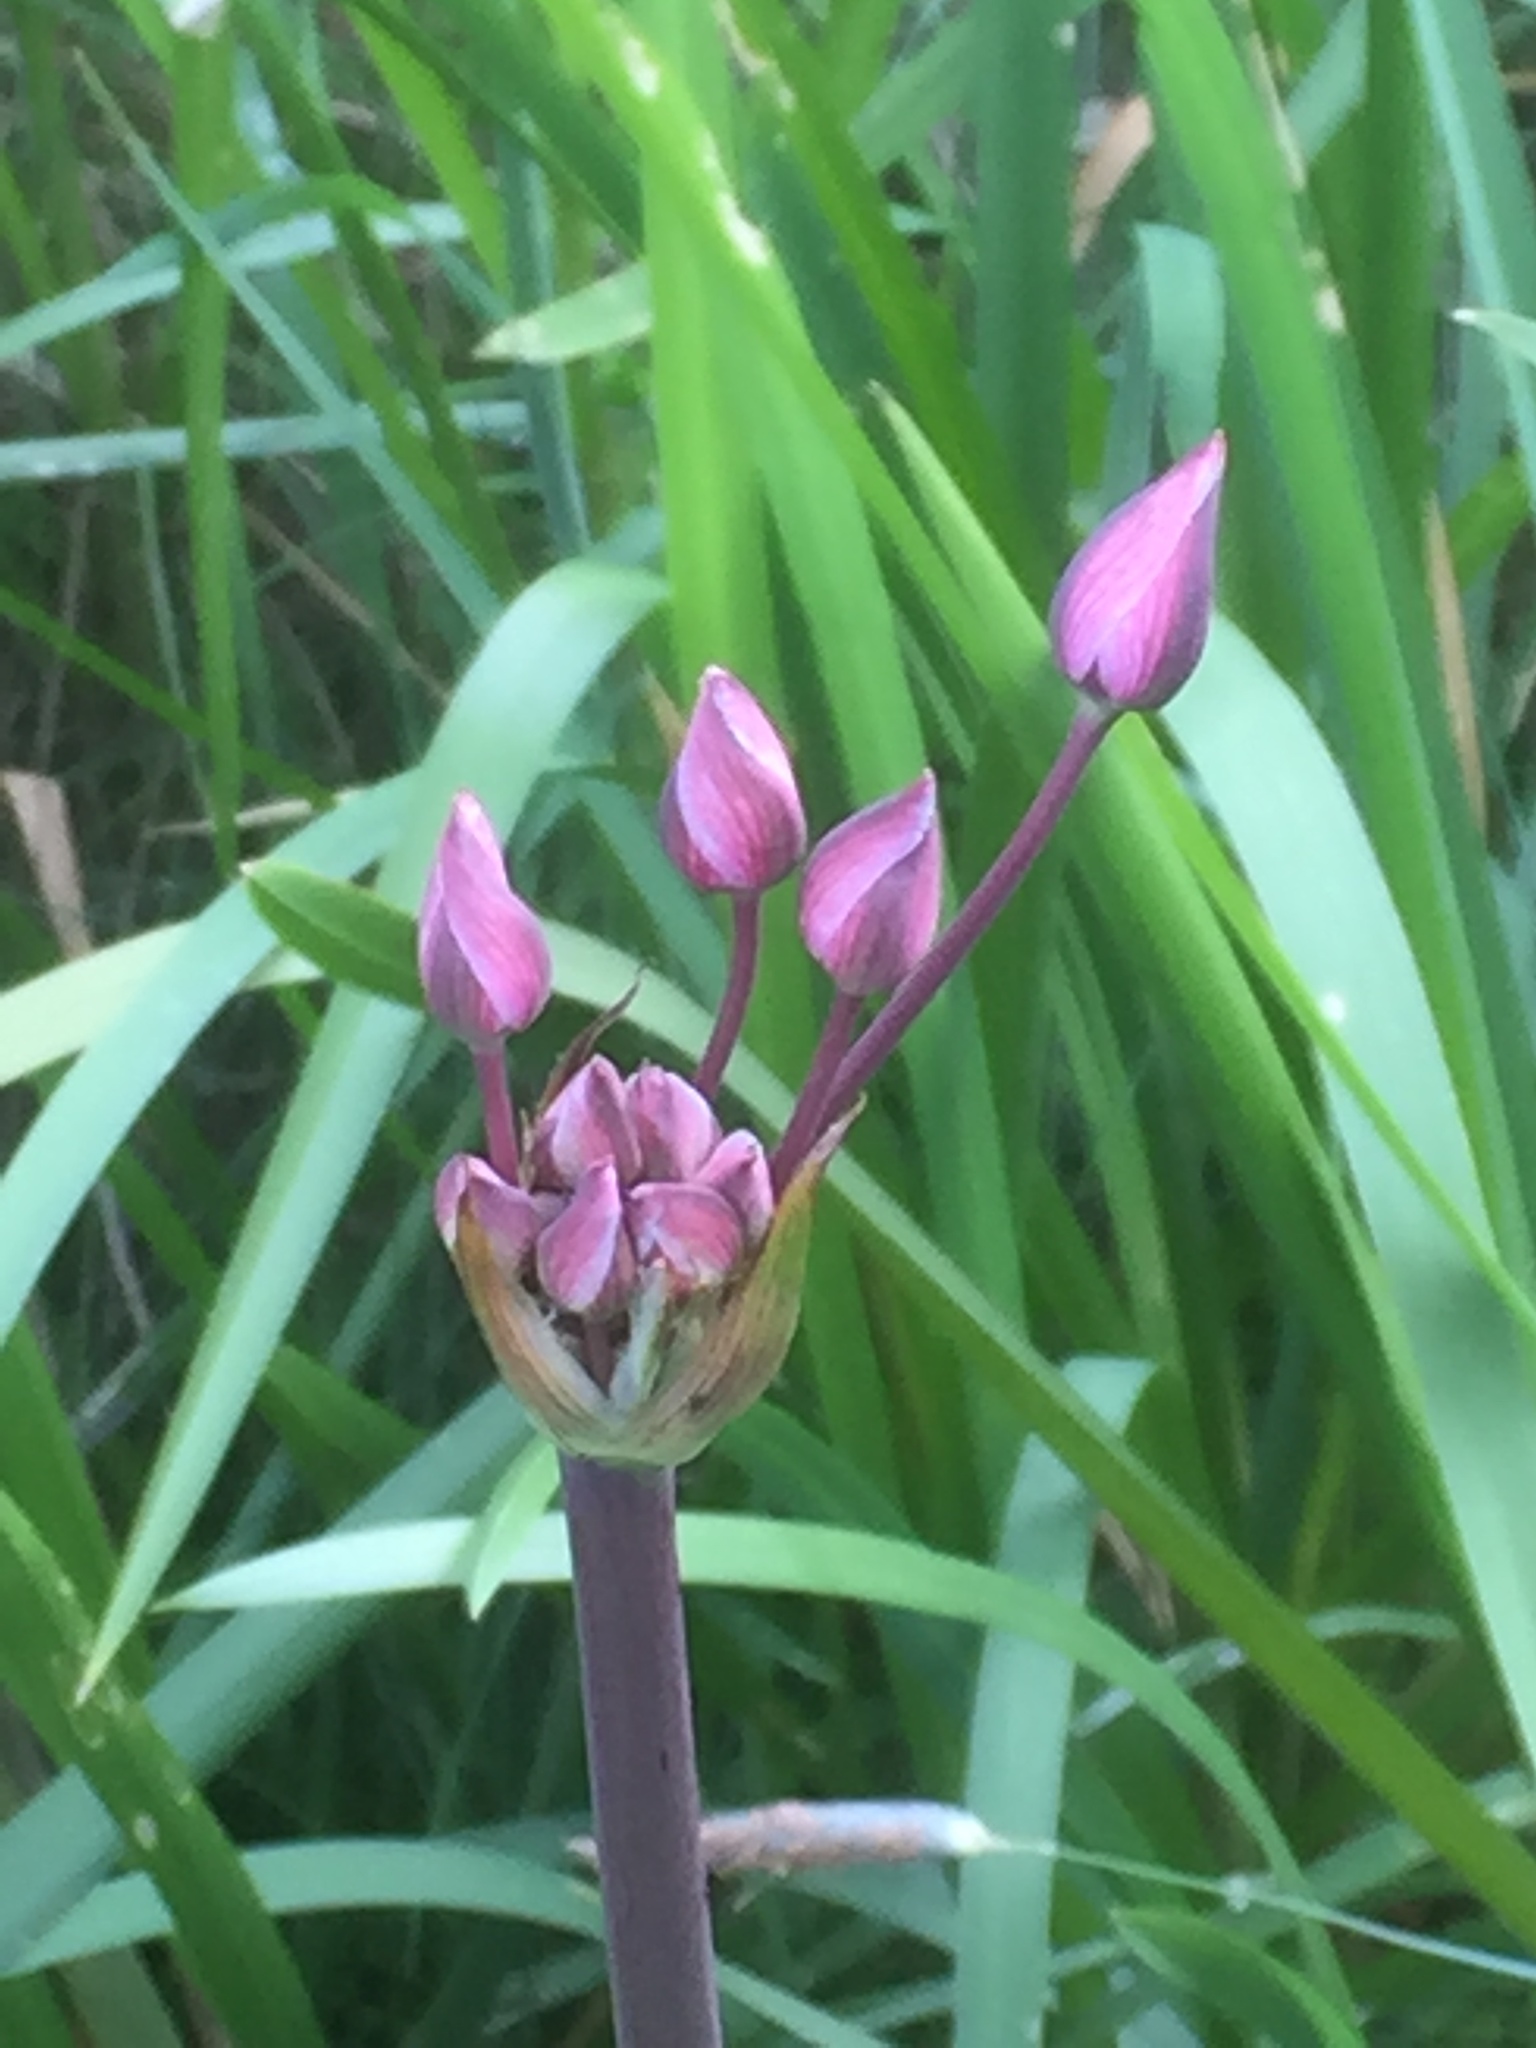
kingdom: Plantae
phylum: Tracheophyta
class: Liliopsida
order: Alismatales
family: Butomaceae
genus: Butomus
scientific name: Butomus umbellatus
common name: Flowering-rush
